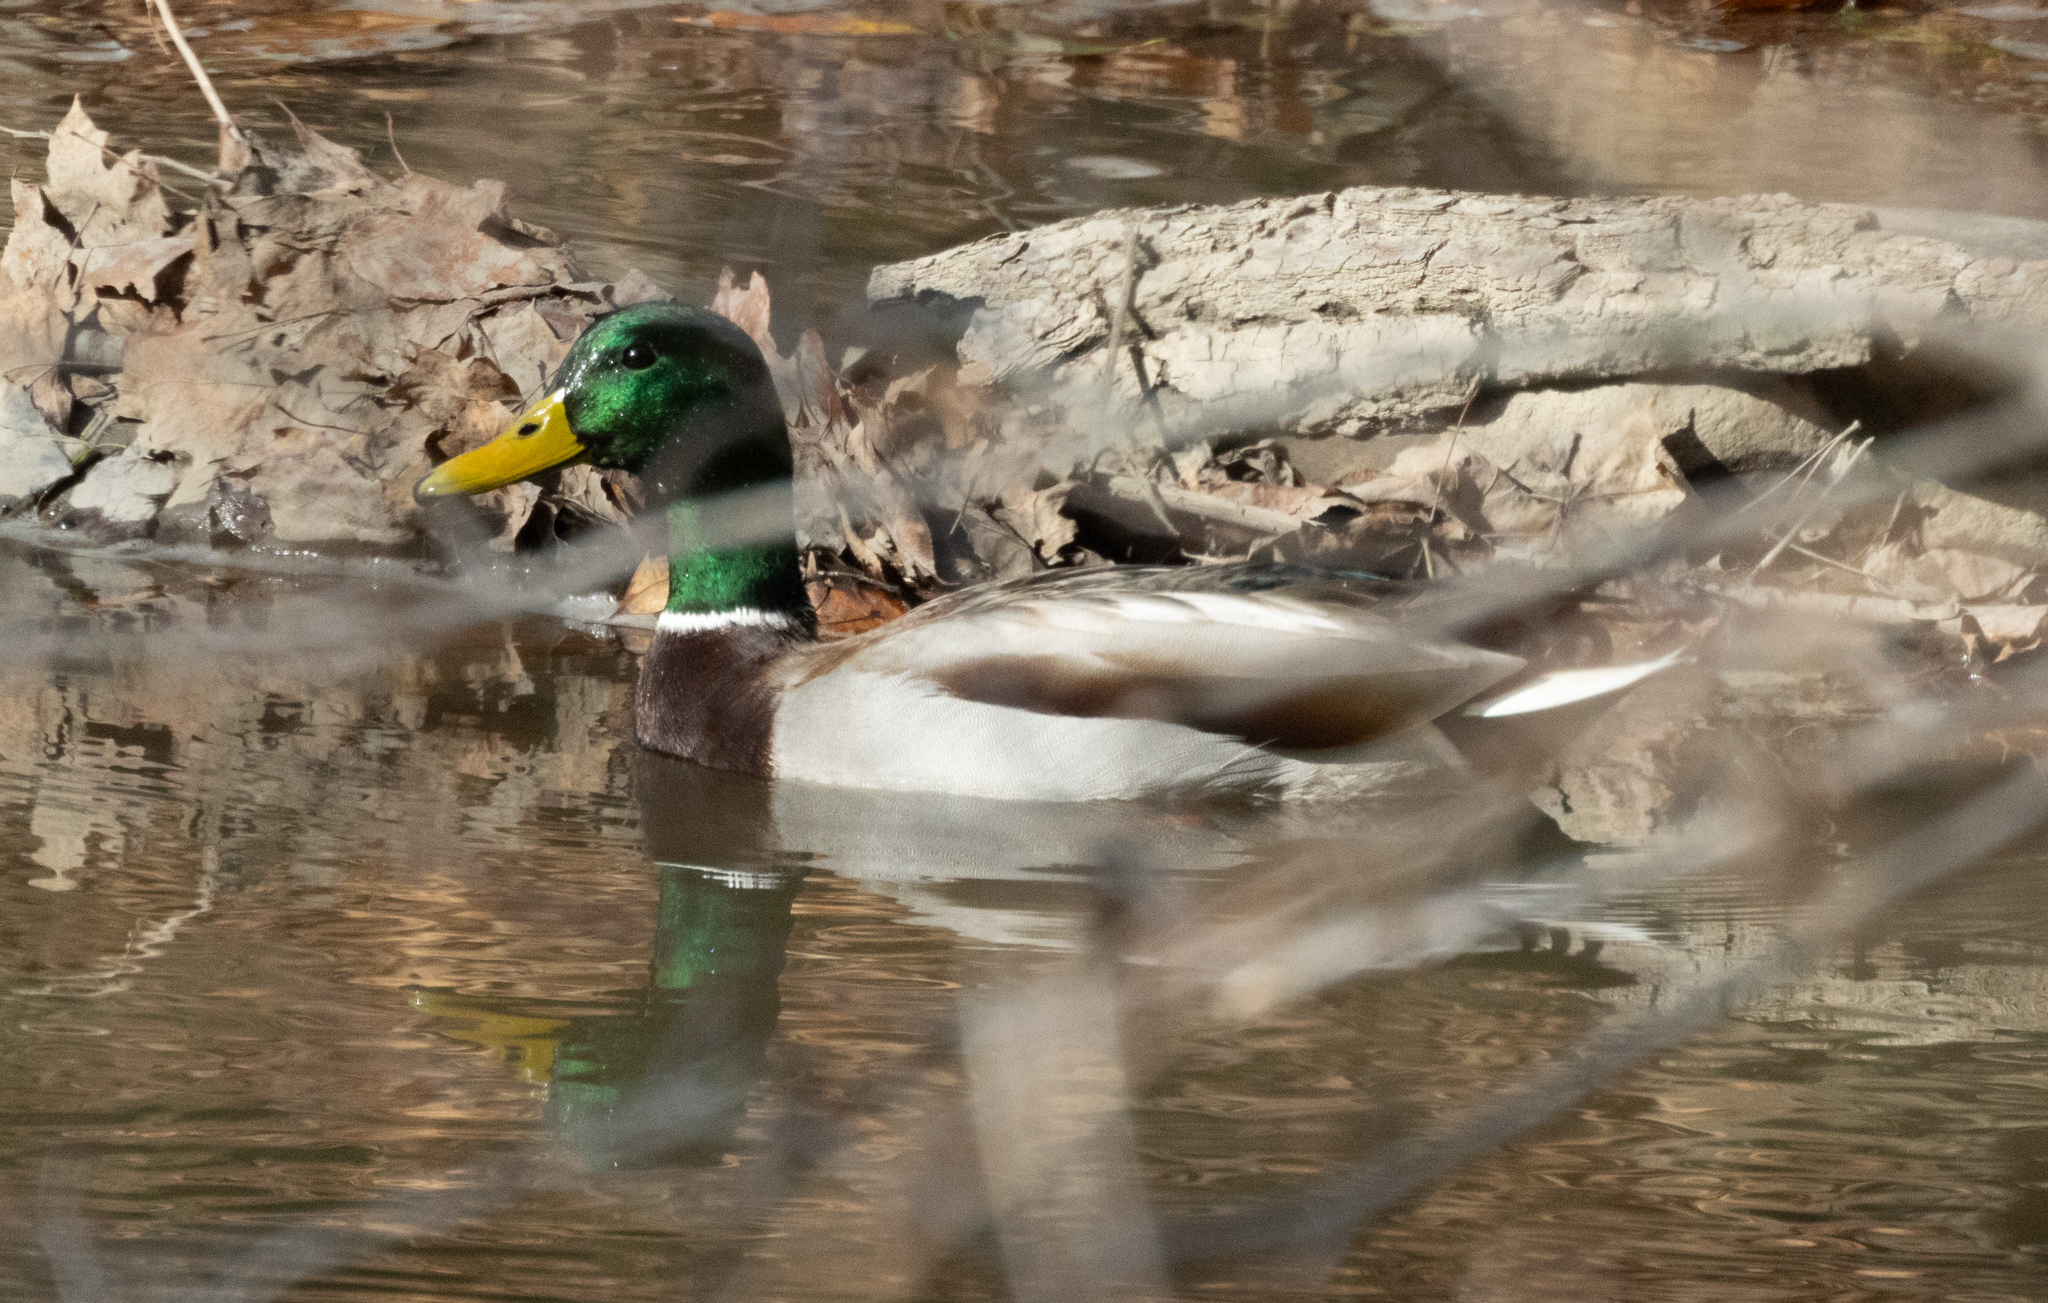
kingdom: Animalia
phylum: Chordata
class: Aves
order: Anseriformes
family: Anatidae
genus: Anas
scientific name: Anas platyrhynchos
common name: Mallard
